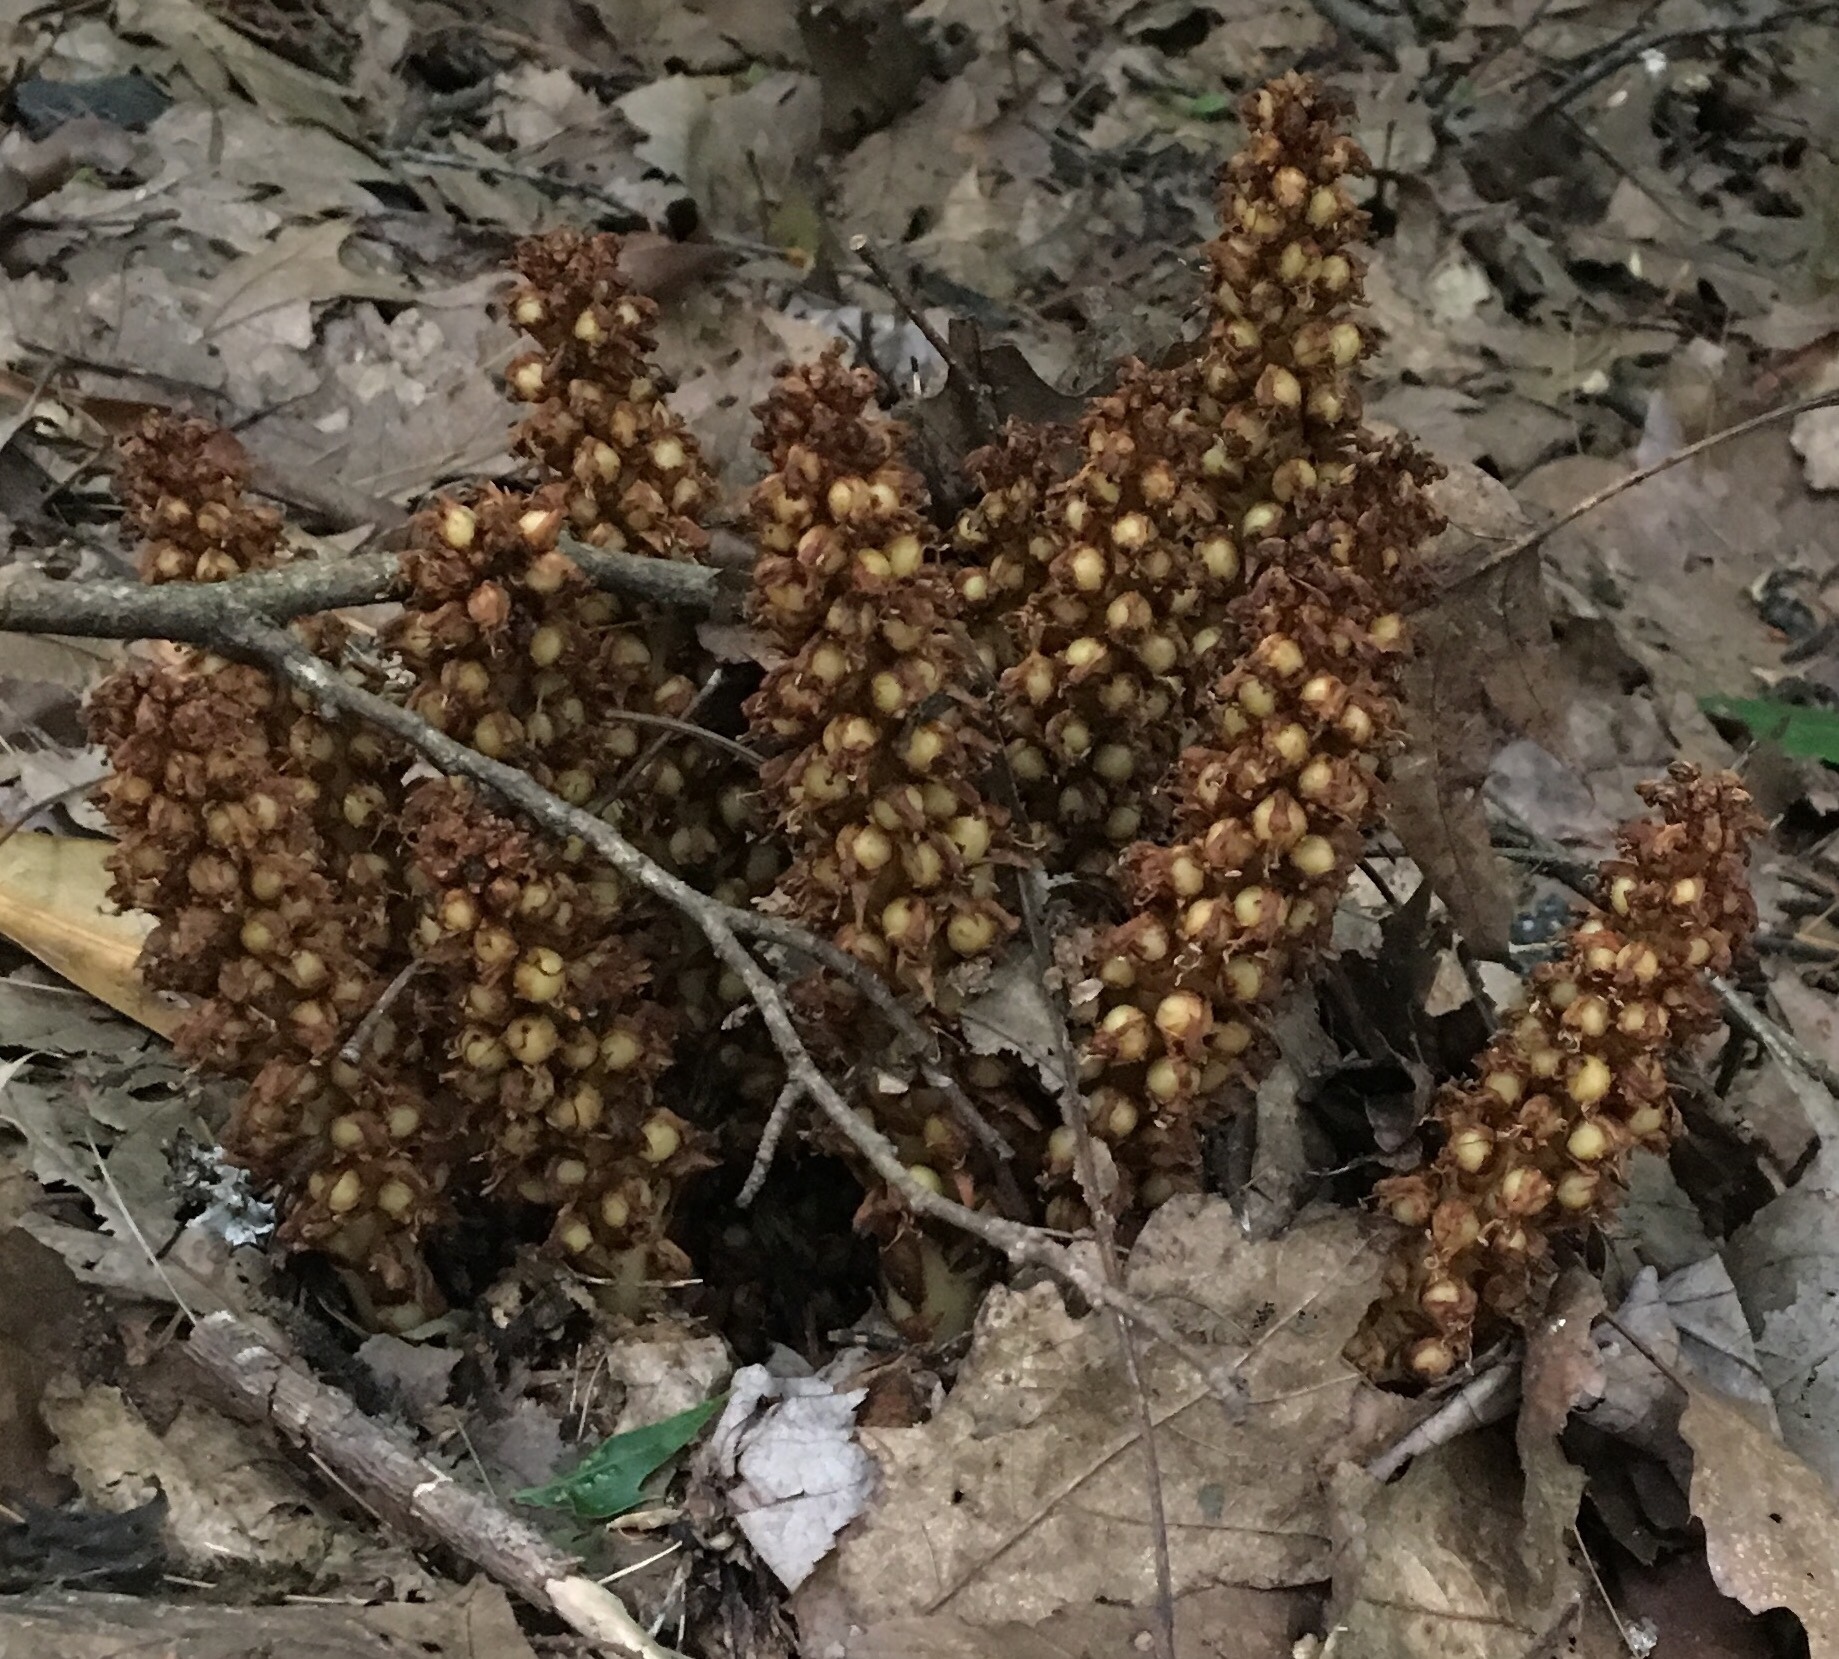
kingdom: Plantae
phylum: Tracheophyta
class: Magnoliopsida
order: Lamiales
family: Orobanchaceae
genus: Conopholis
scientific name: Conopholis americana
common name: American cancer-root
